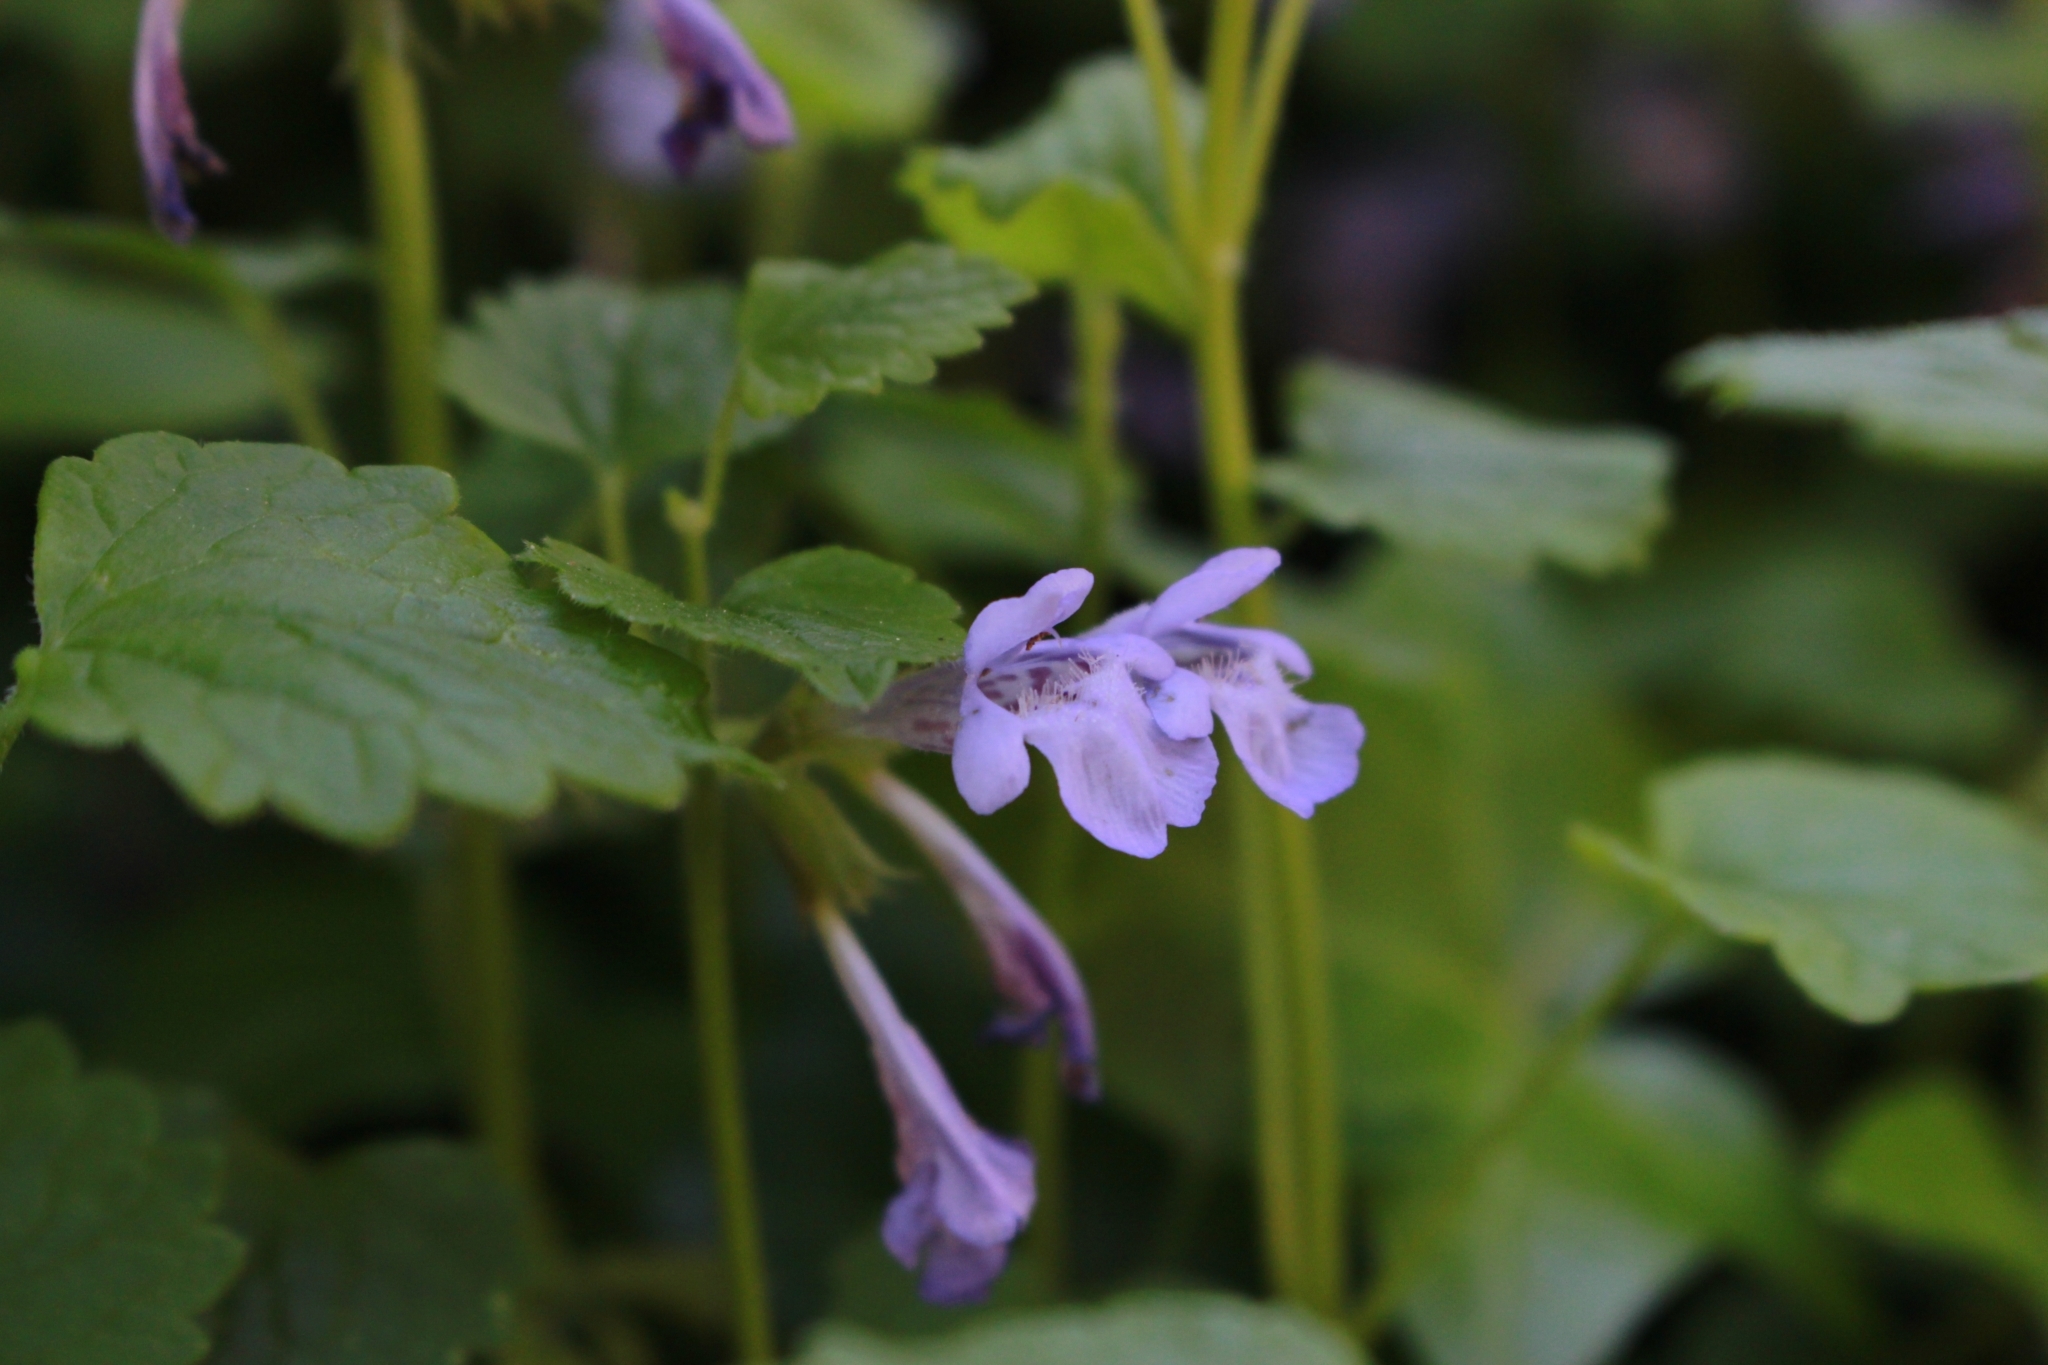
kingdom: Plantae
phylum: Tracheophyta
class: Magnoliopsida
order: Lamiales
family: Lamiaceae
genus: Glechoma
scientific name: Glechoma hederacea
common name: Ground ivy
